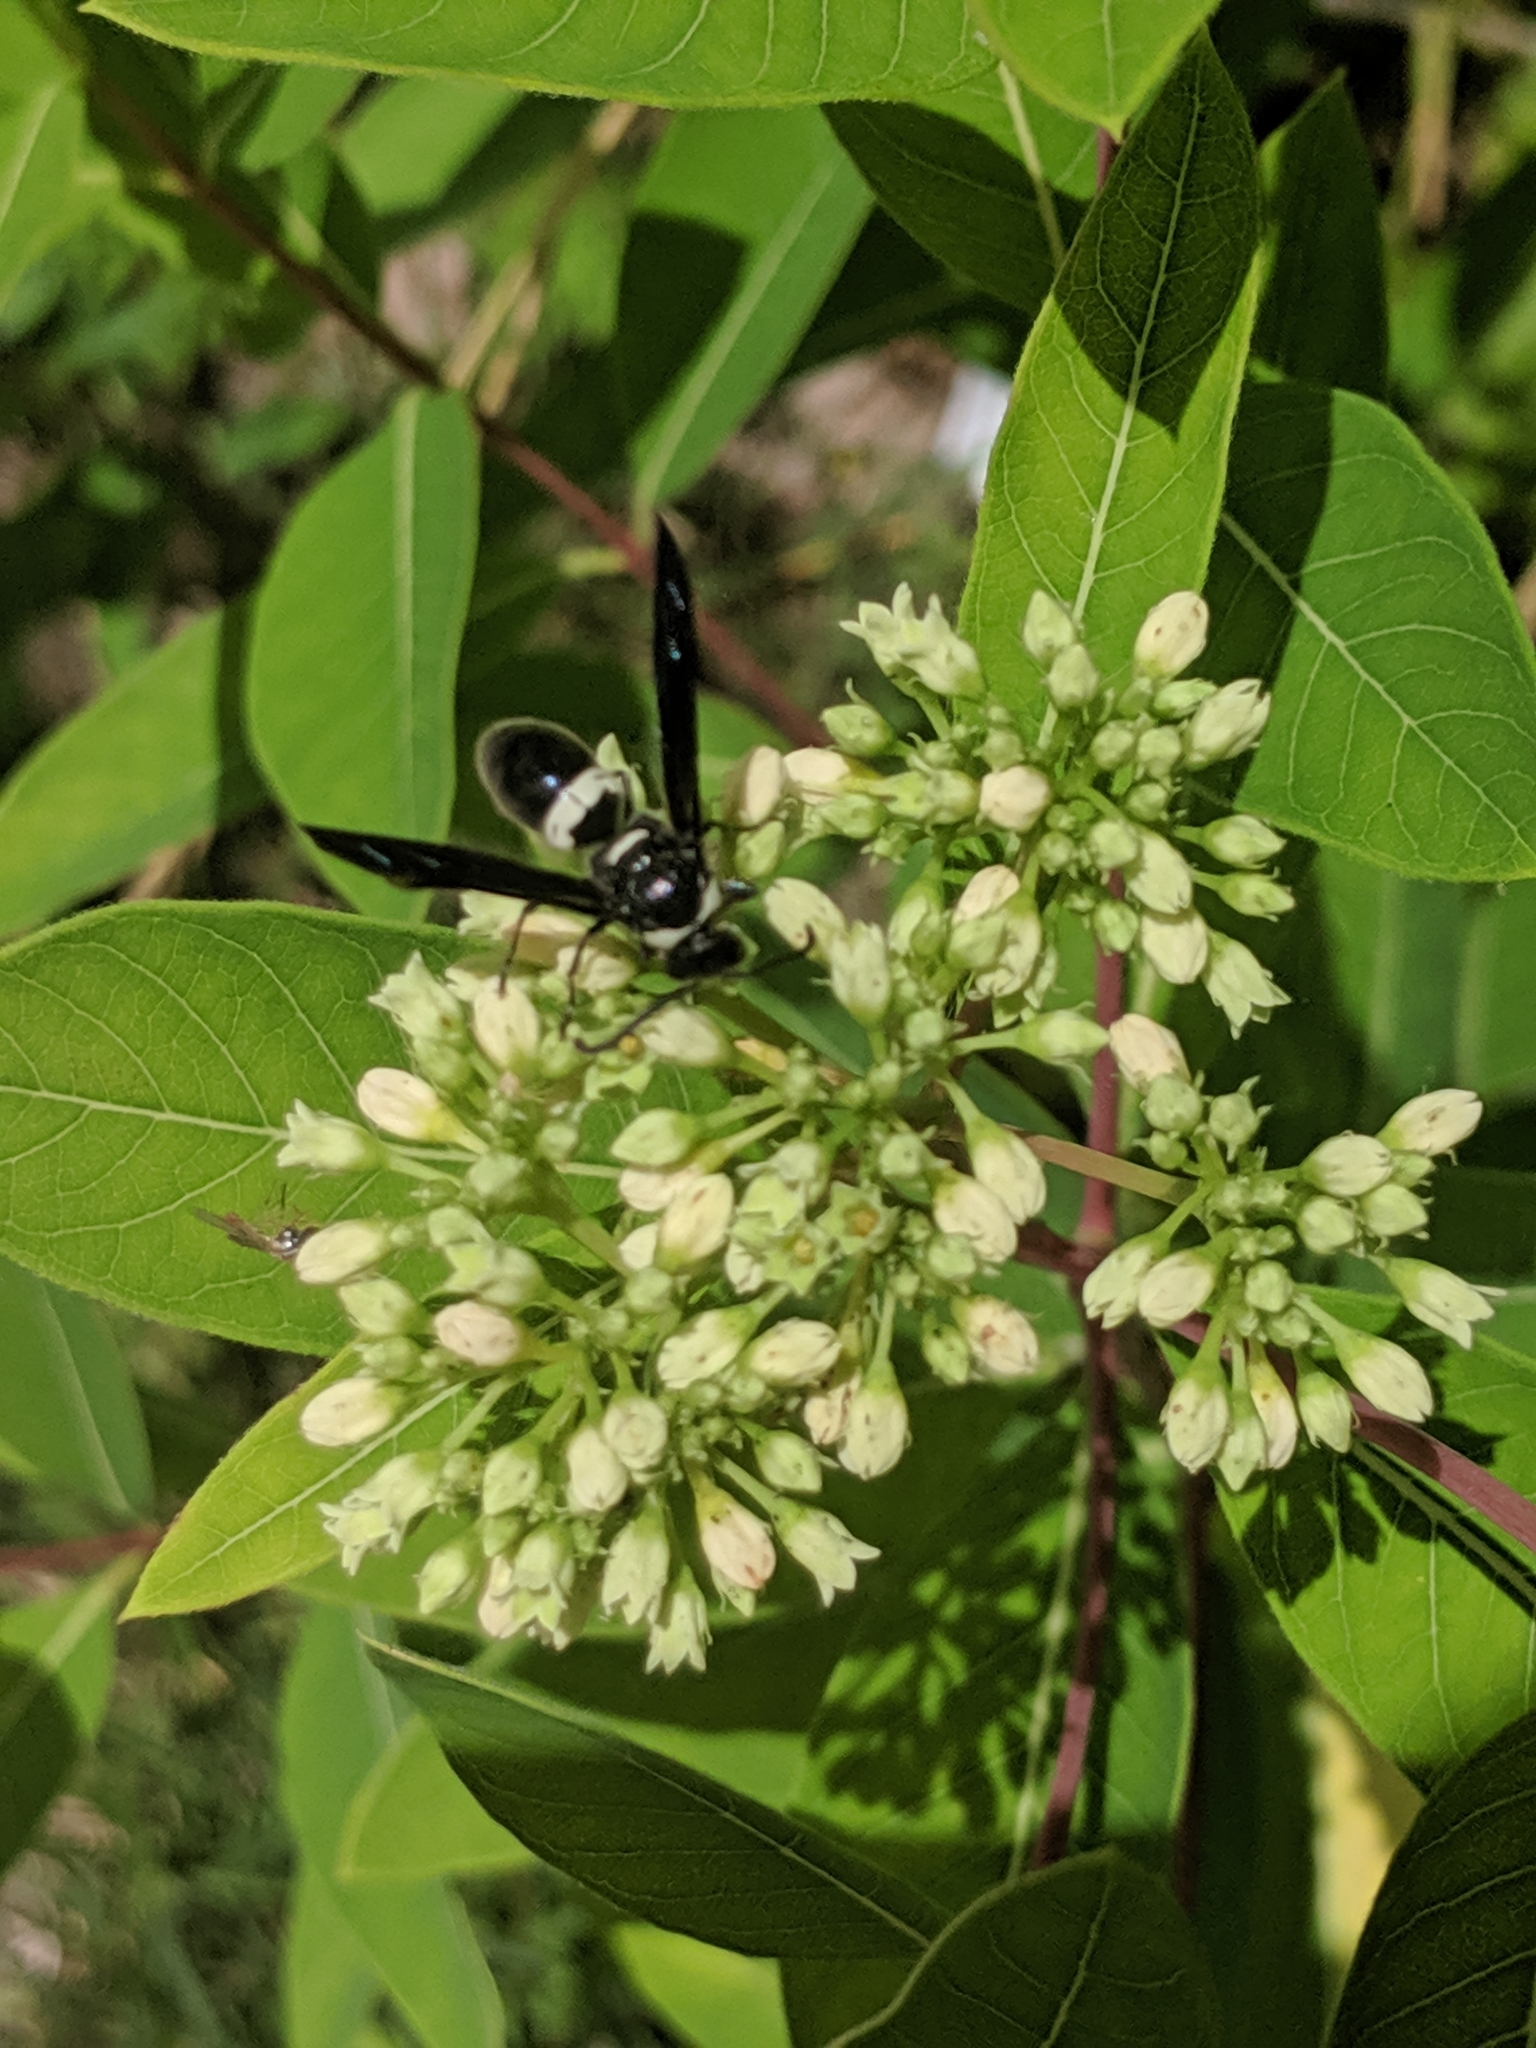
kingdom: Animalia
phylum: Arthropoda
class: Insecta
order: Hymenoptera
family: Eumenidae
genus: Monobia
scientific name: Monobia quadridens
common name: Four-toothed mason wasp
